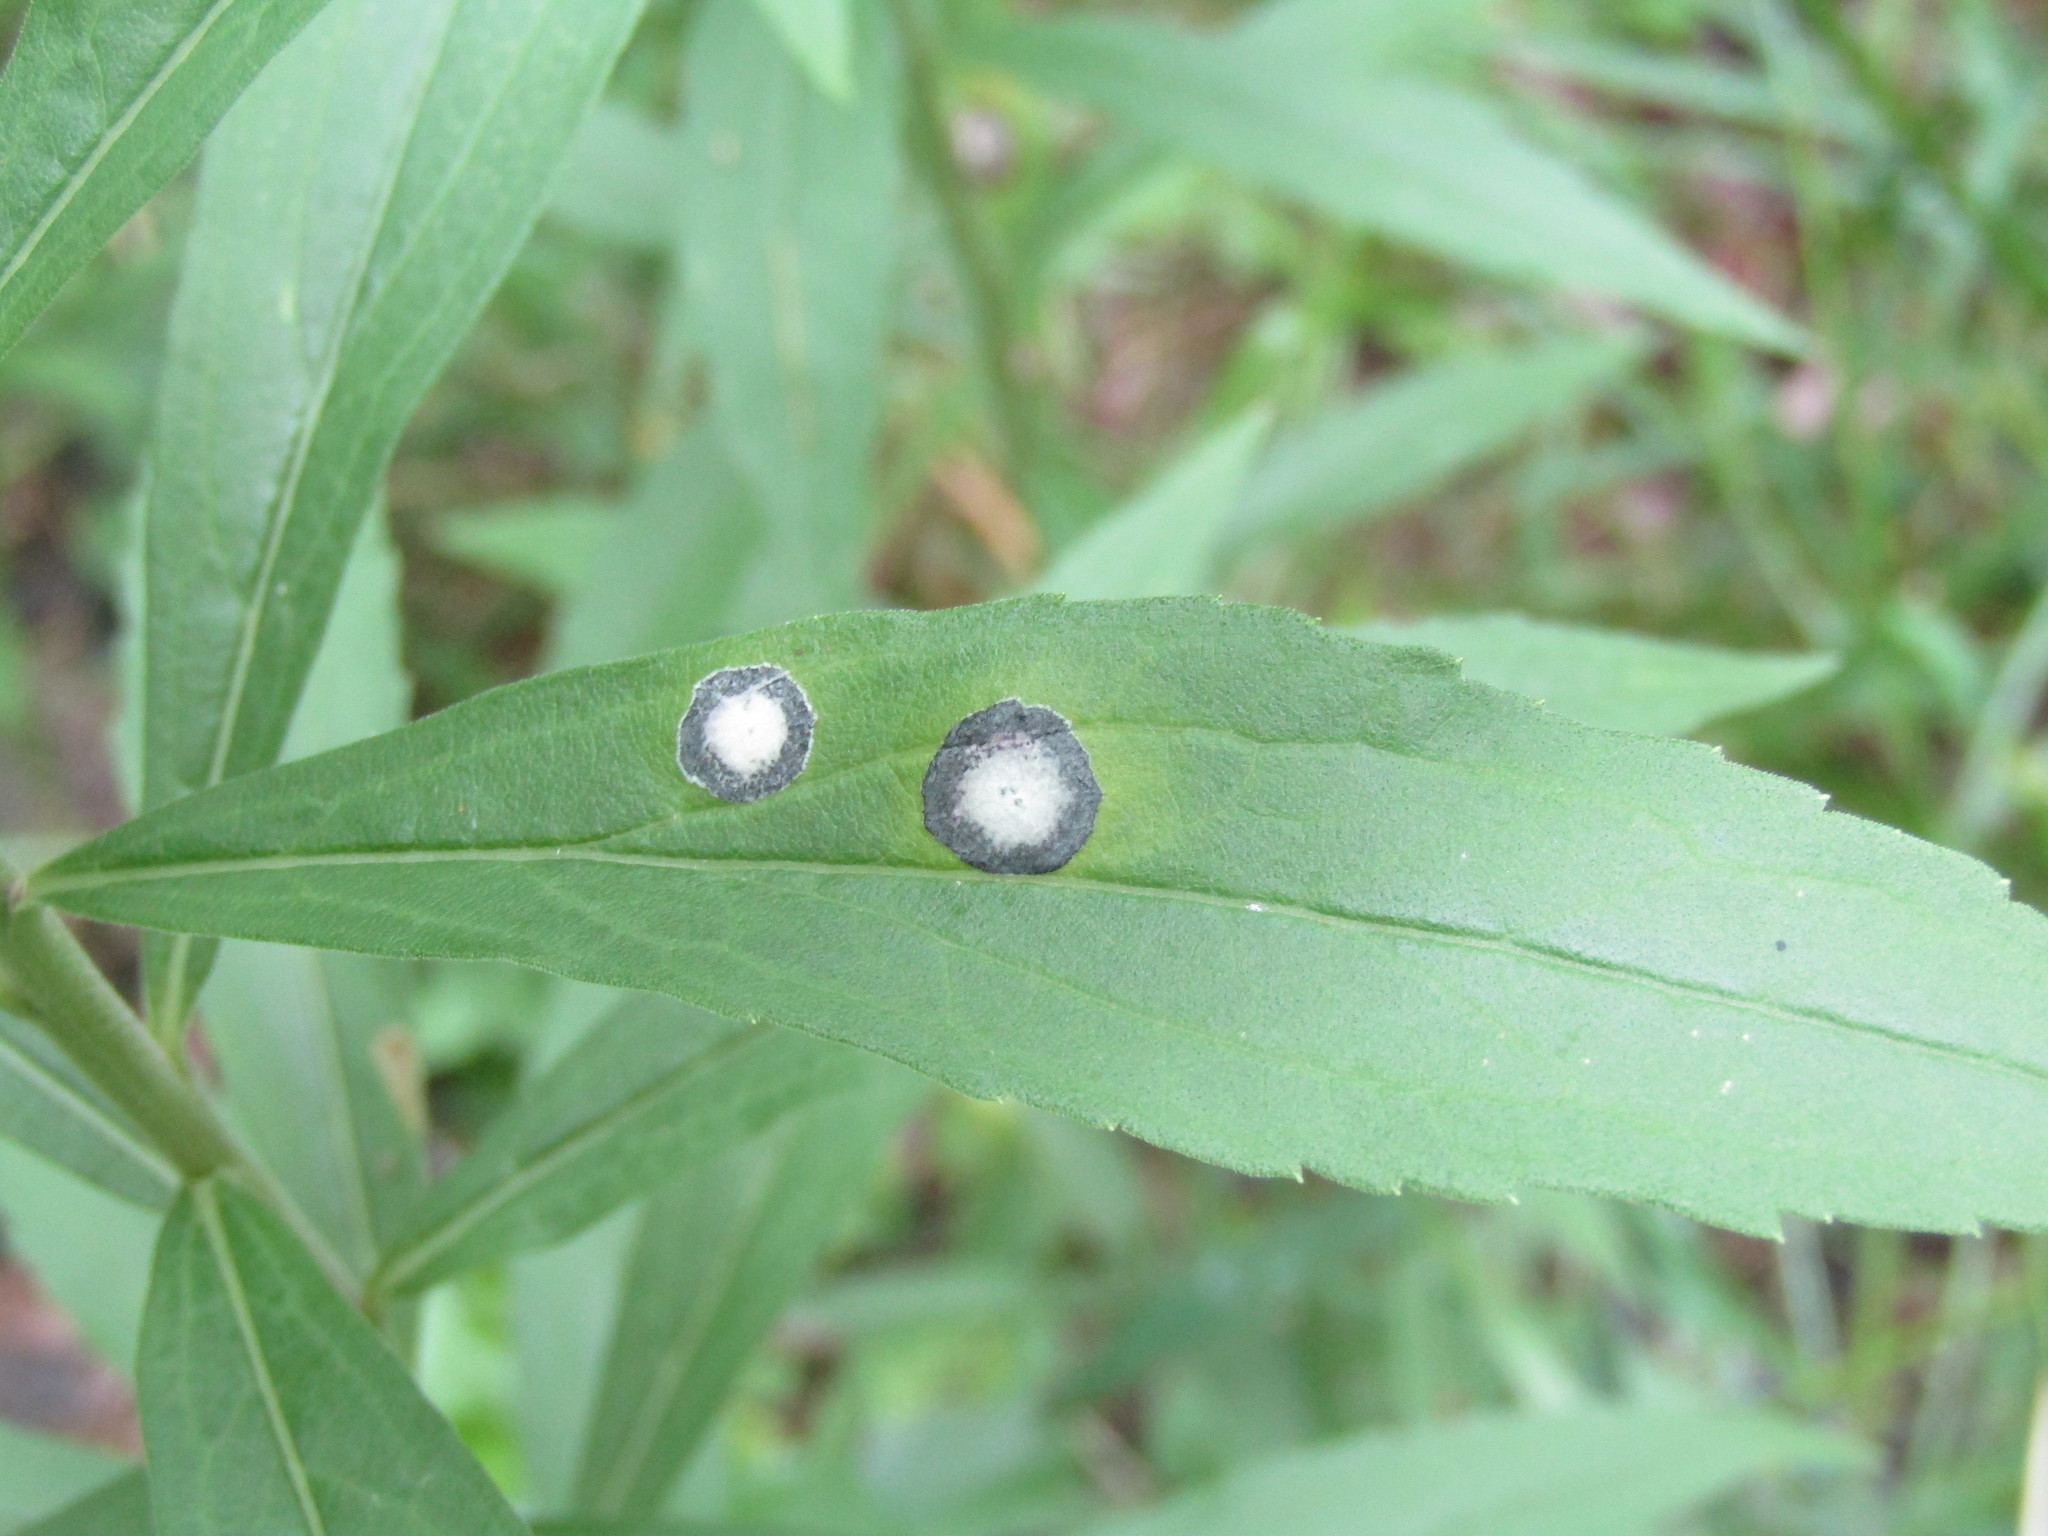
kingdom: Animalia
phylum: Arthropoda
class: Insecta
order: Diptera
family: Cecidomyiidae
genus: Asteromyia
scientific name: Asteromyia carbonifera
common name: Carbonifera goldenrod gall midge
